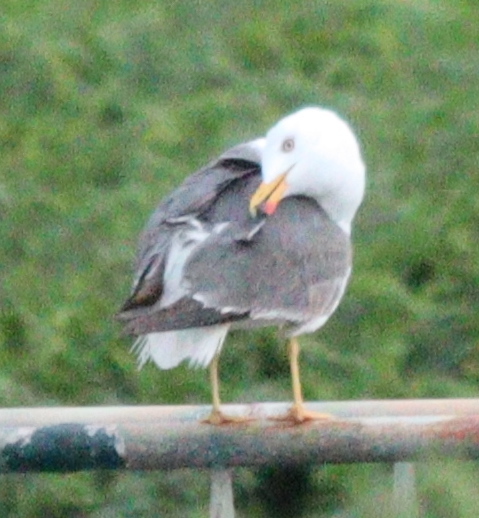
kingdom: Animalia
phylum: Chordata
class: Aves
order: Charadriiformes
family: Laridae
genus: Larus
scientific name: Larus fuscus
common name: Lesser black-backed gull
